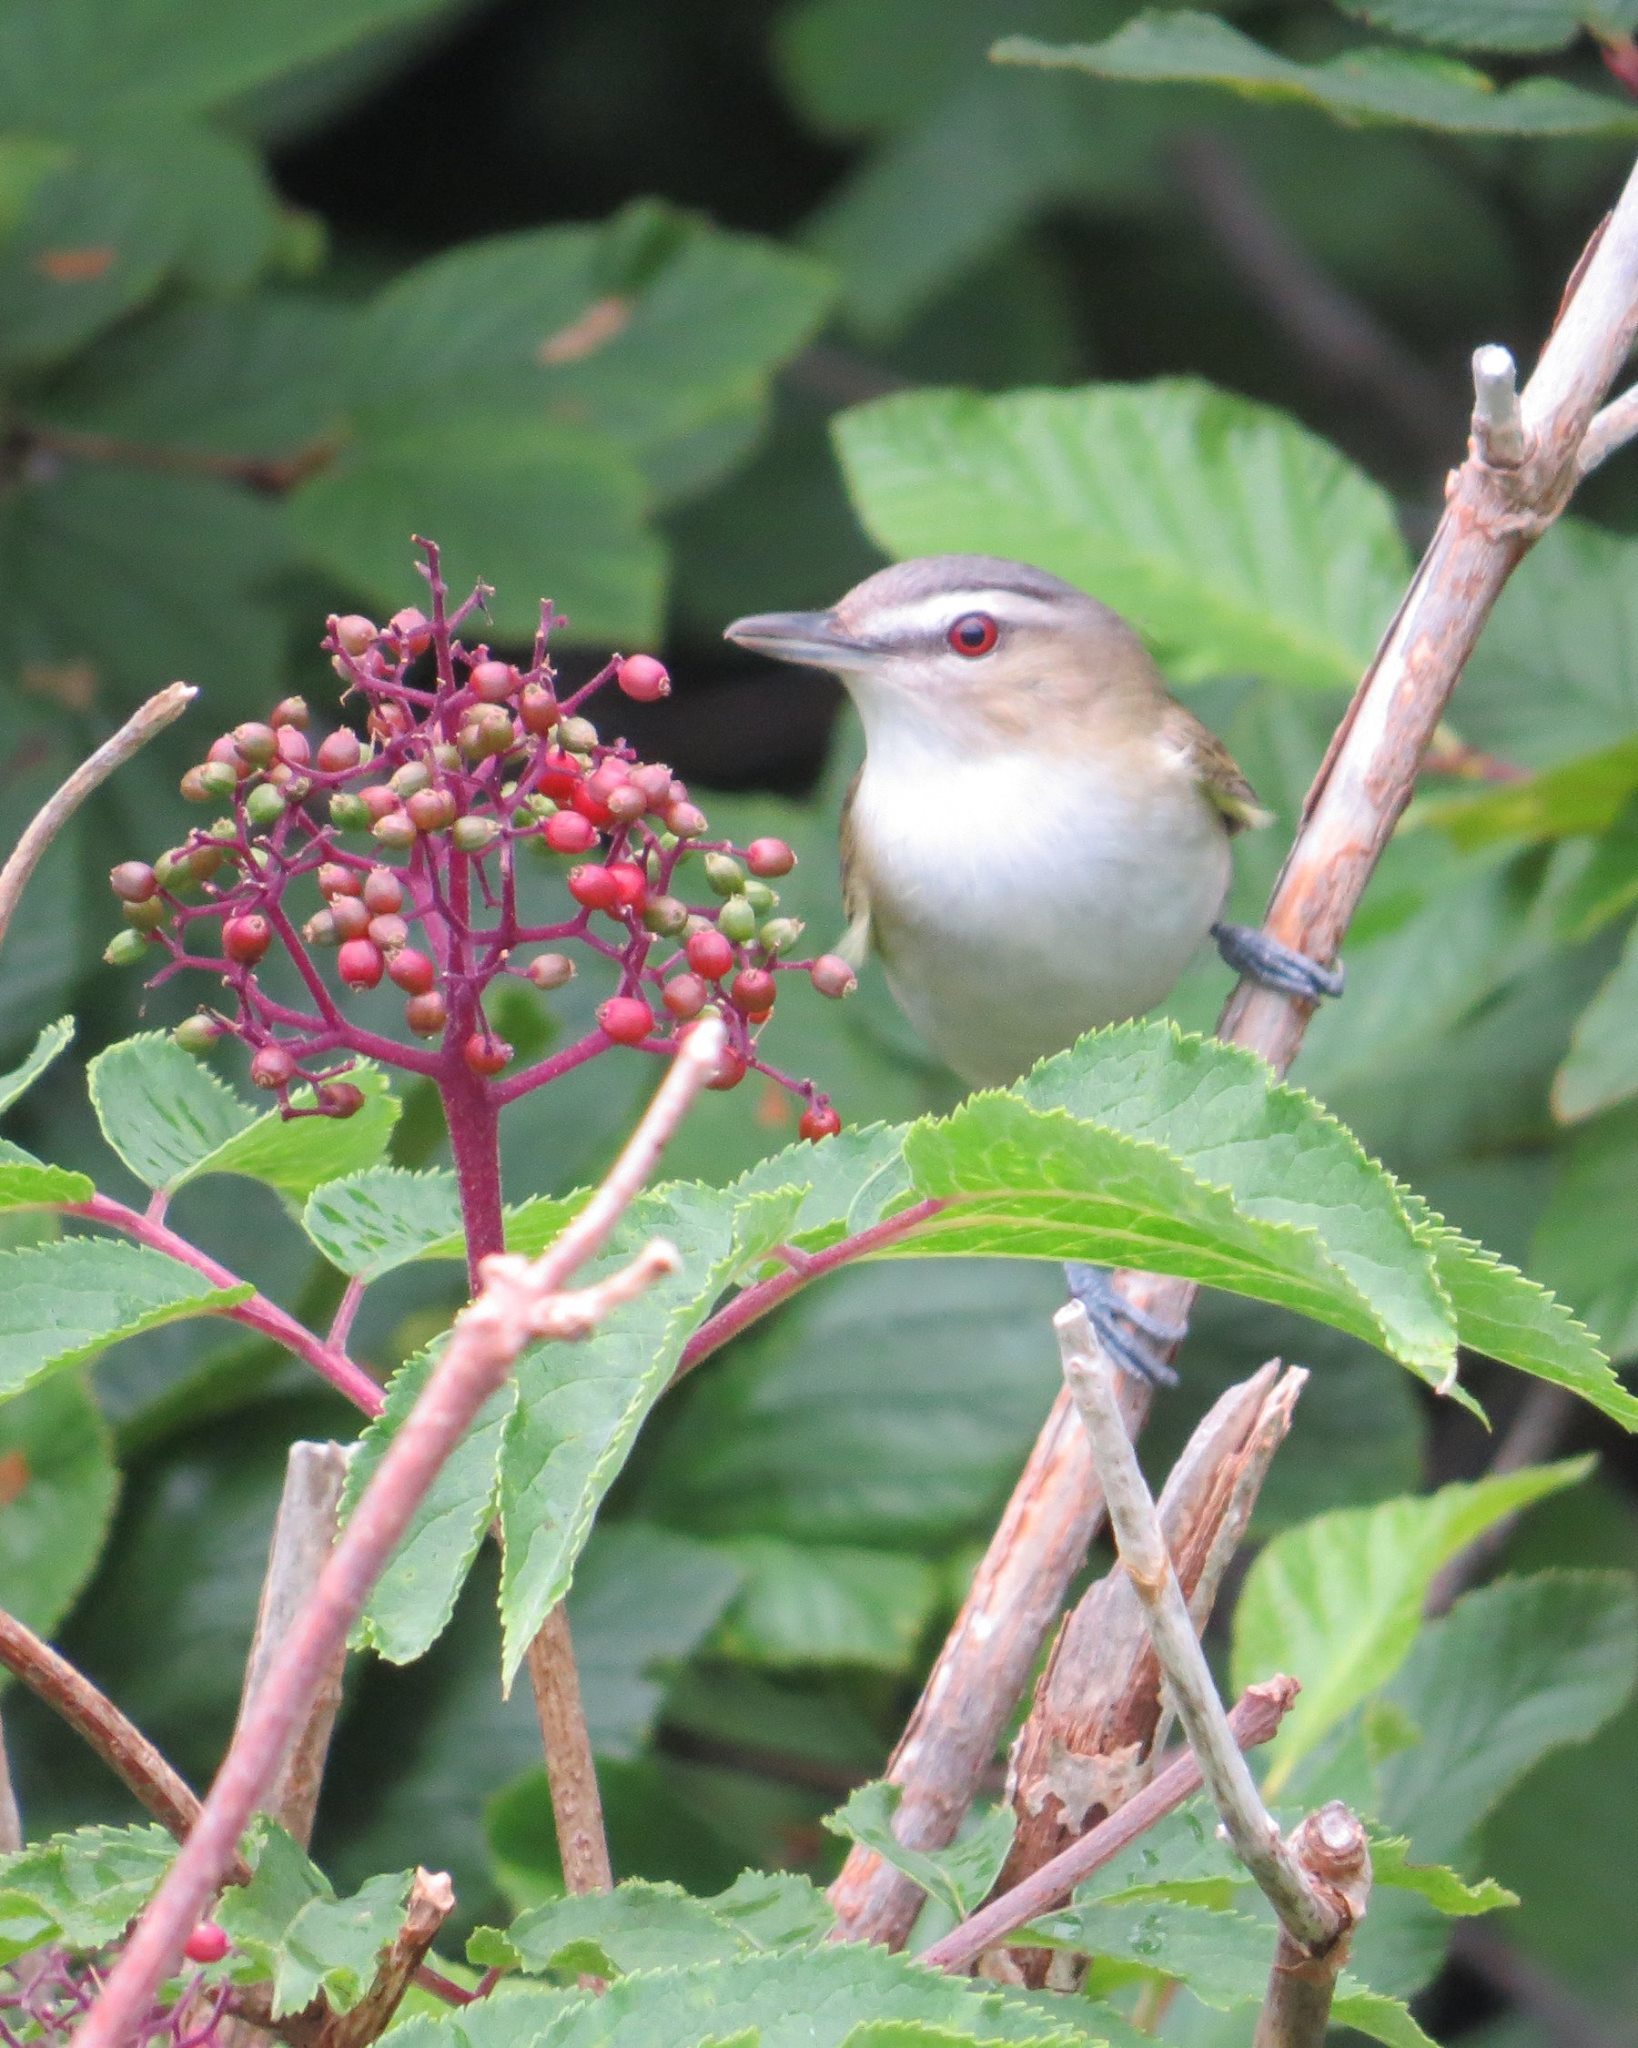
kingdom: Animalia
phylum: Chordata
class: Aves
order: Passeriformes
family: Vireonidae
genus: Vireo
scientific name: Vireo olivaceus
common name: Red-eyed vireo
